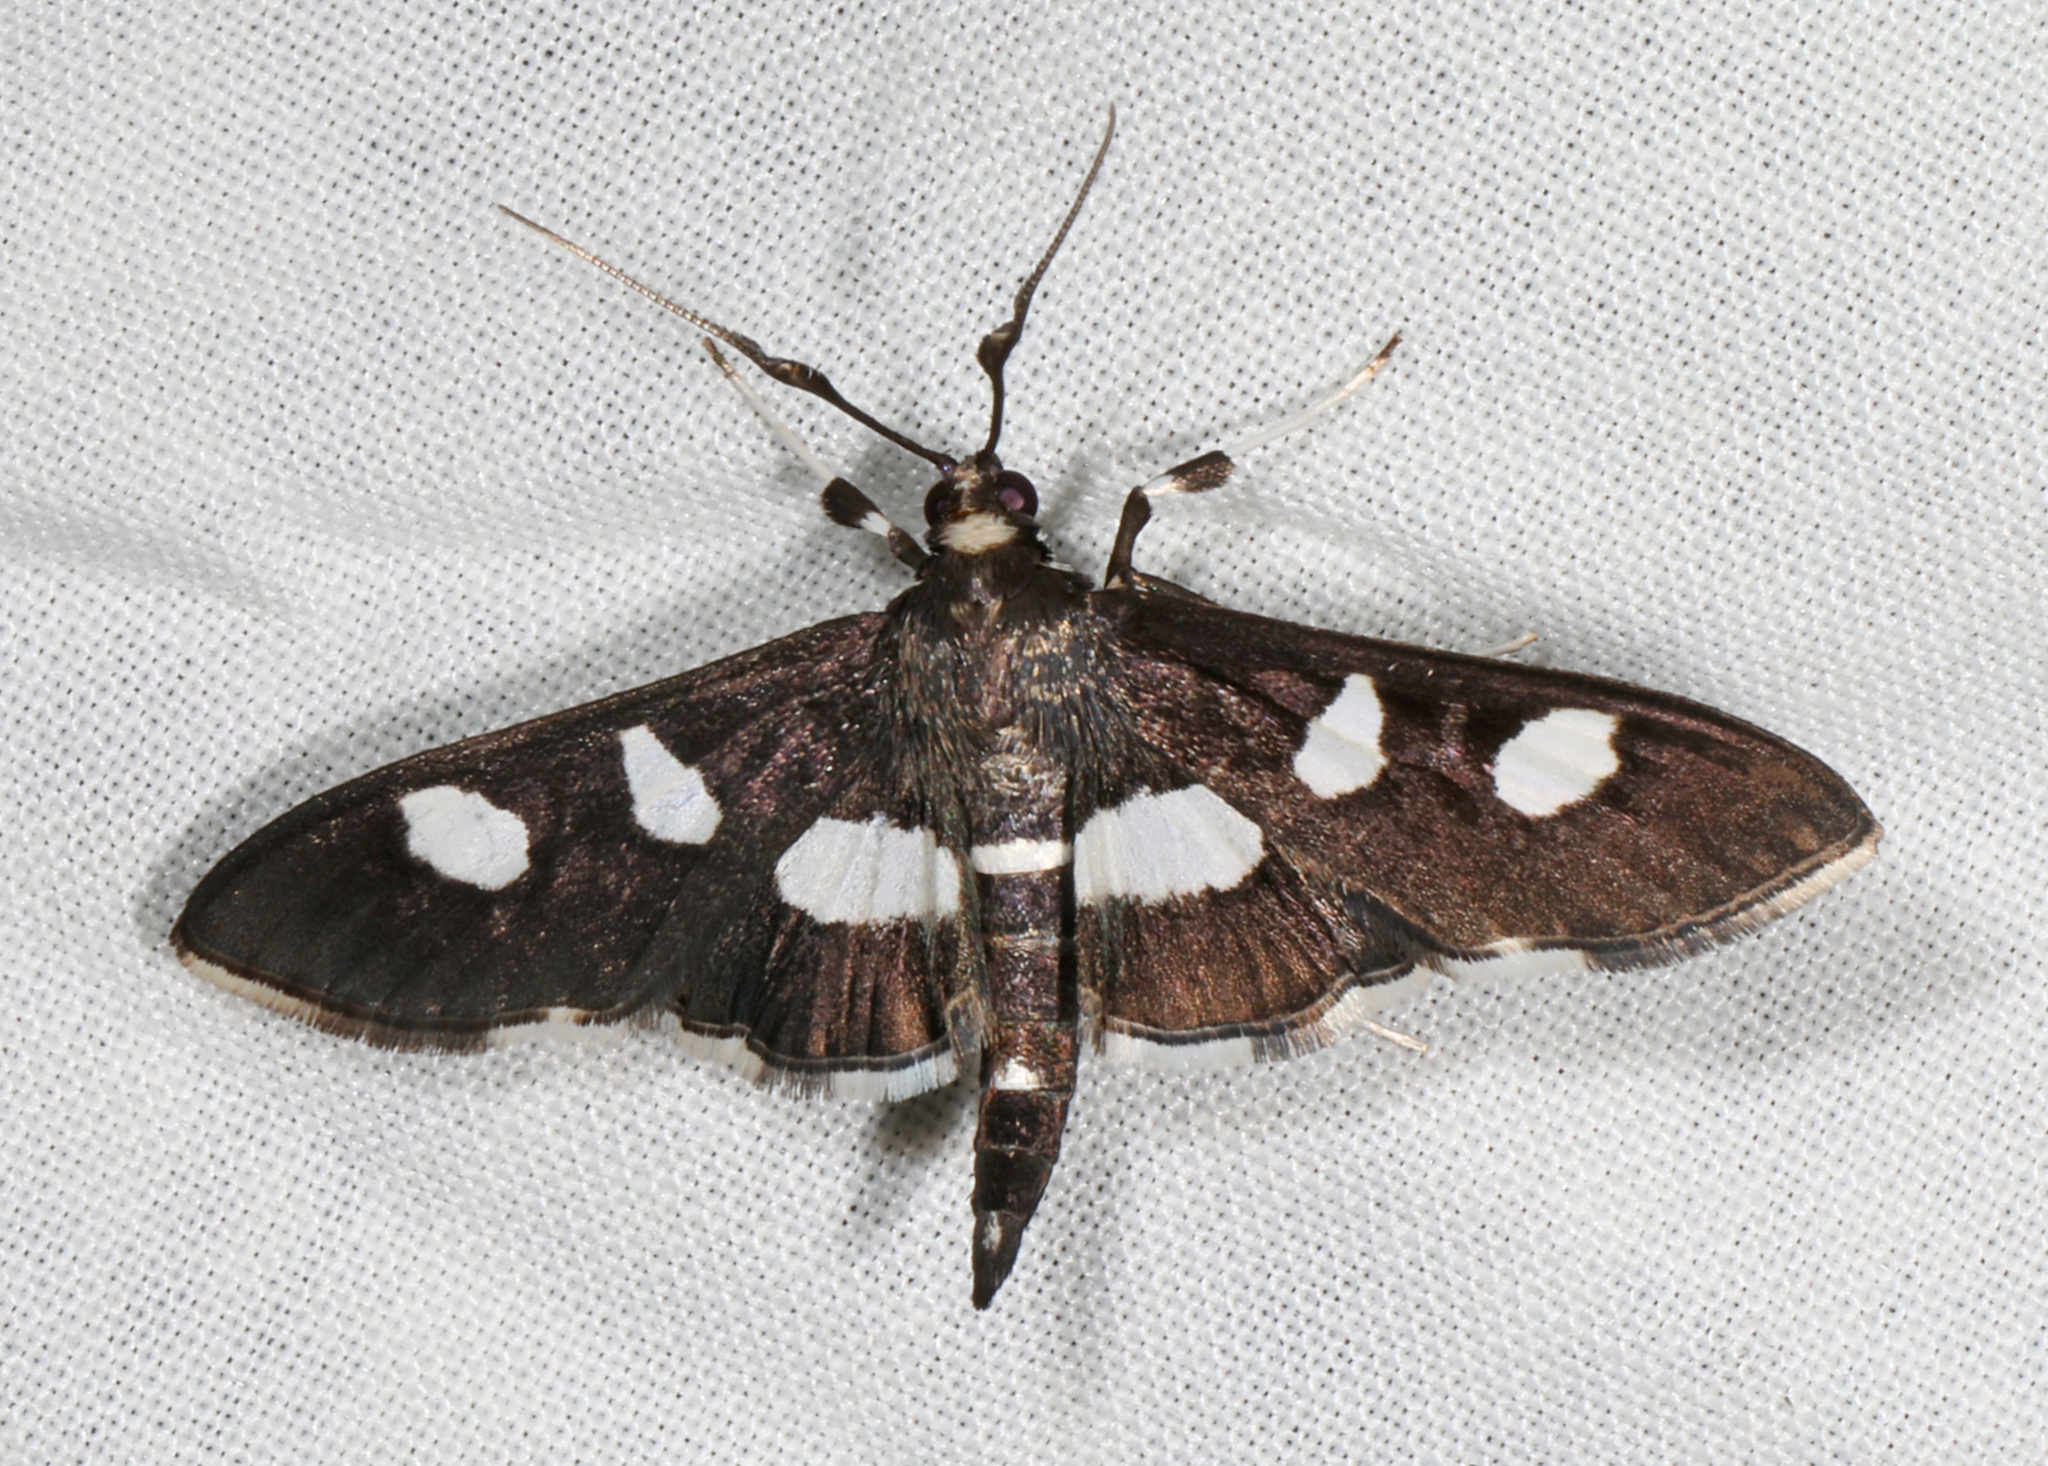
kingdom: Animalia
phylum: Arthropoda
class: Insecta
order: Lepidoptera
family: Crambidae
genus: Desmia
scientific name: Desmia
